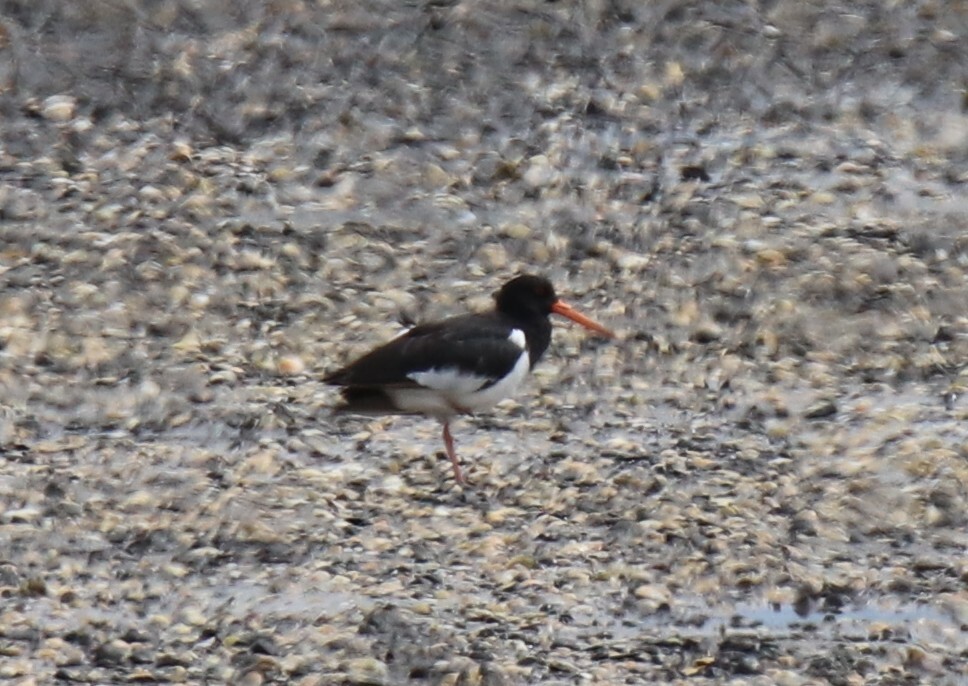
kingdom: Animalia
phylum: Chordata
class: Aves
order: Charadriiformes
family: Haematopodidae
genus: Haematopus
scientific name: Haematopus finschi
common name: South island oystercatcher
